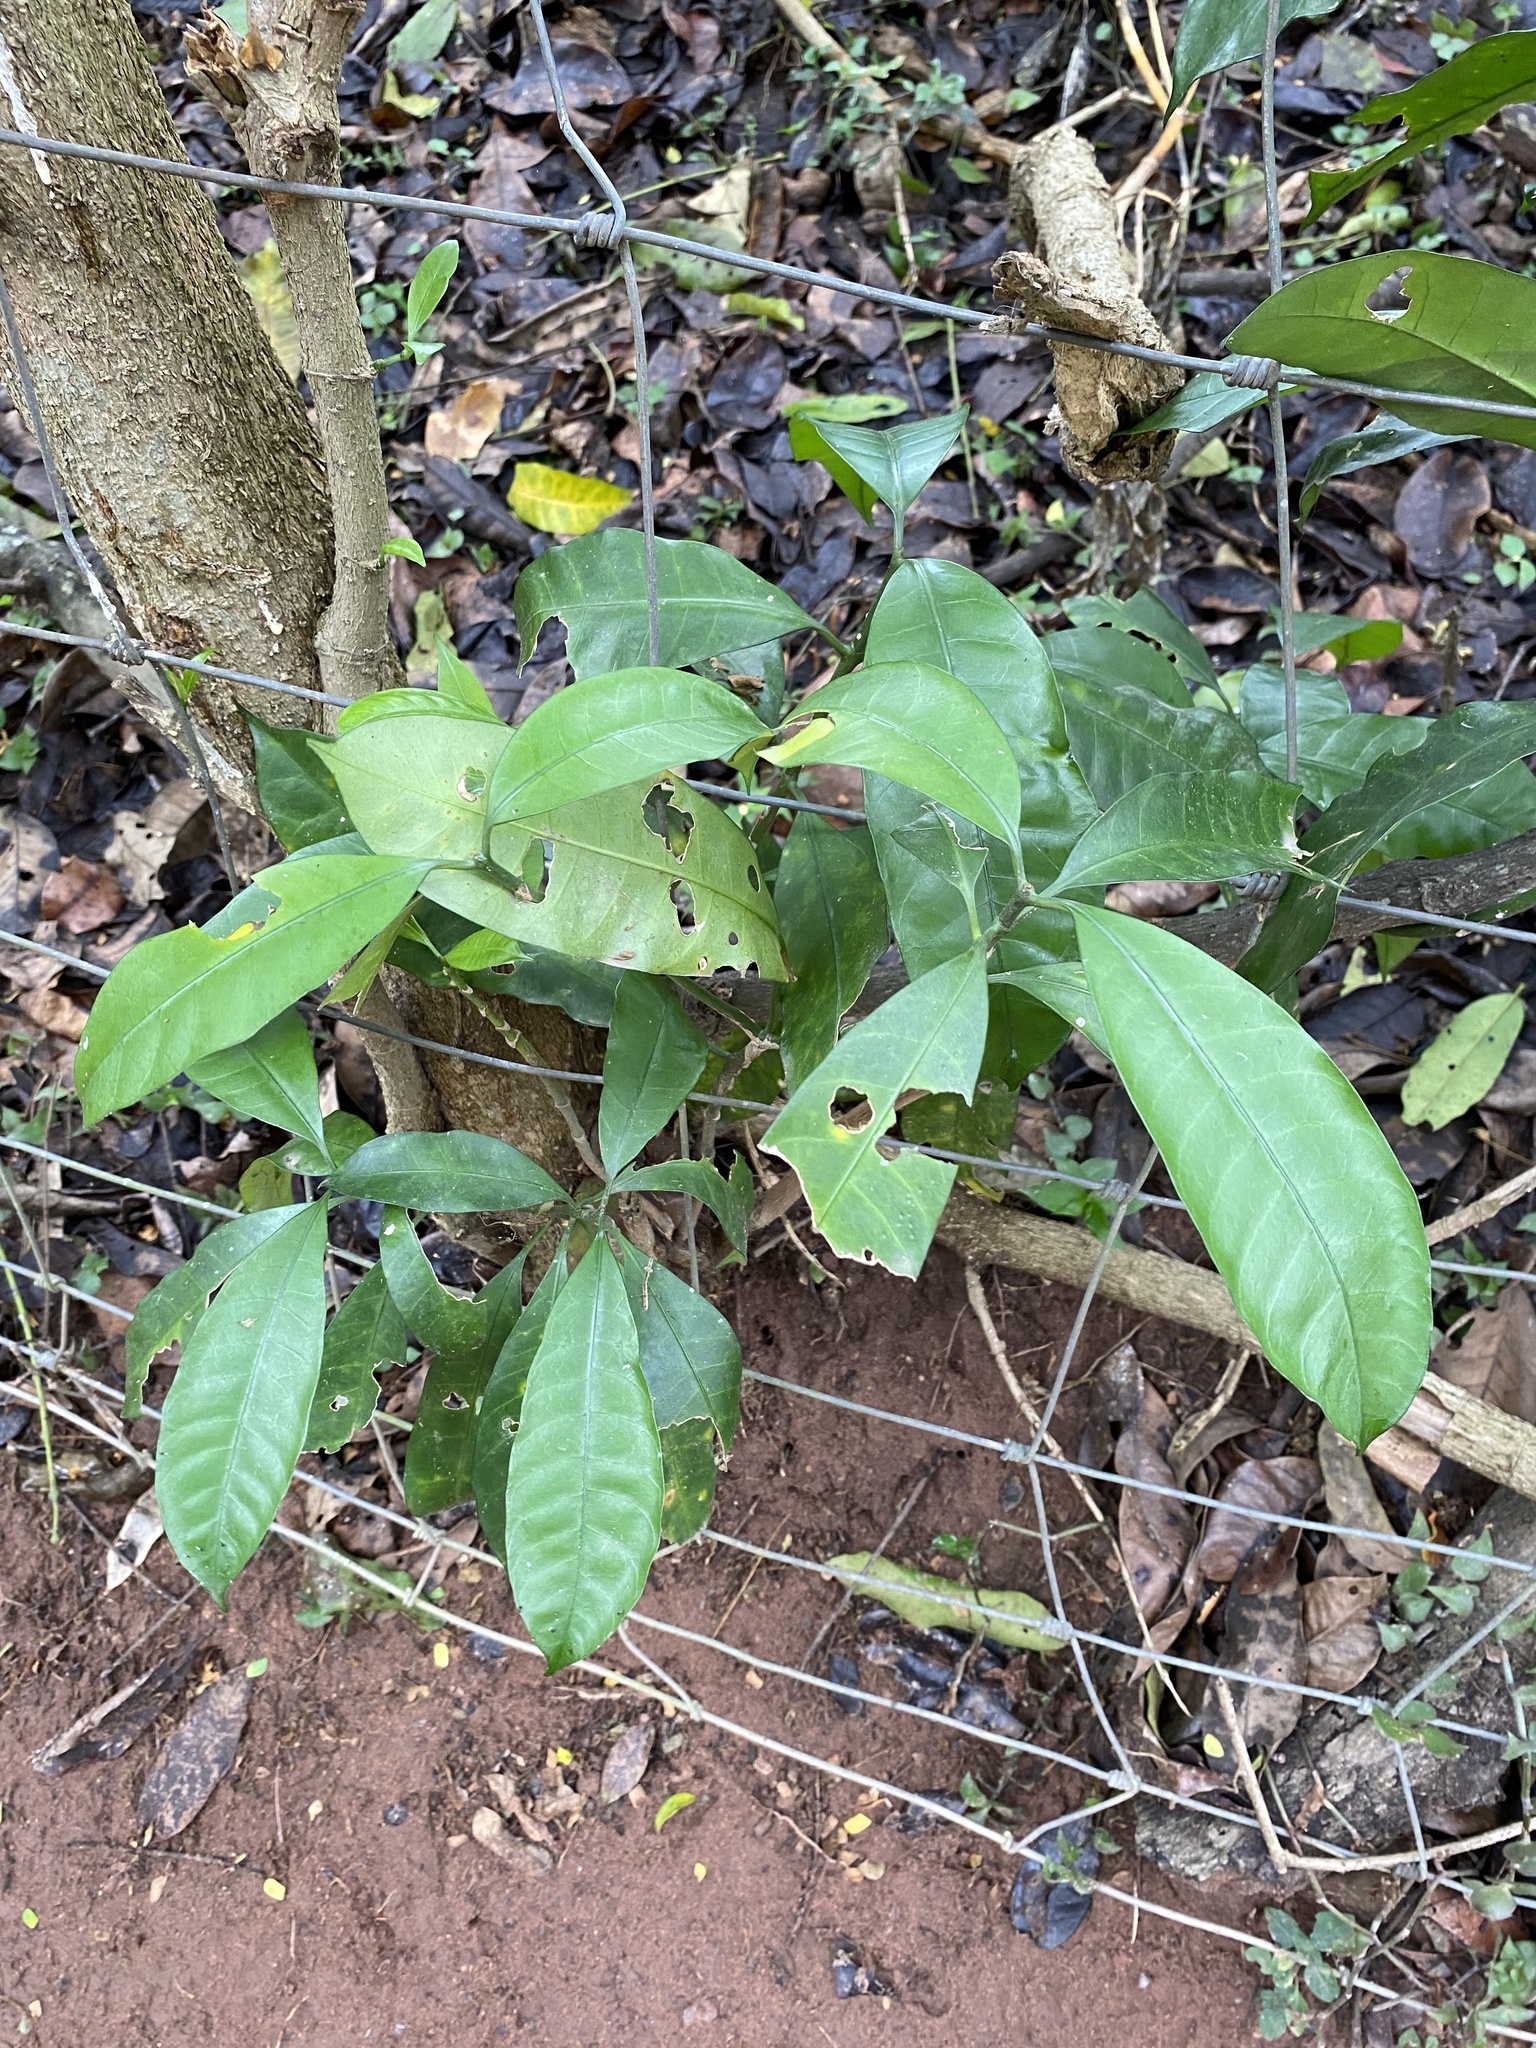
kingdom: Plantae
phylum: Tracheophyta
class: Magnoliopsida
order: Gentianales
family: Apocynaceae
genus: Tabernaemontana
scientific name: Tabernaemontana ventricosa
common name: Forest toad-tree
